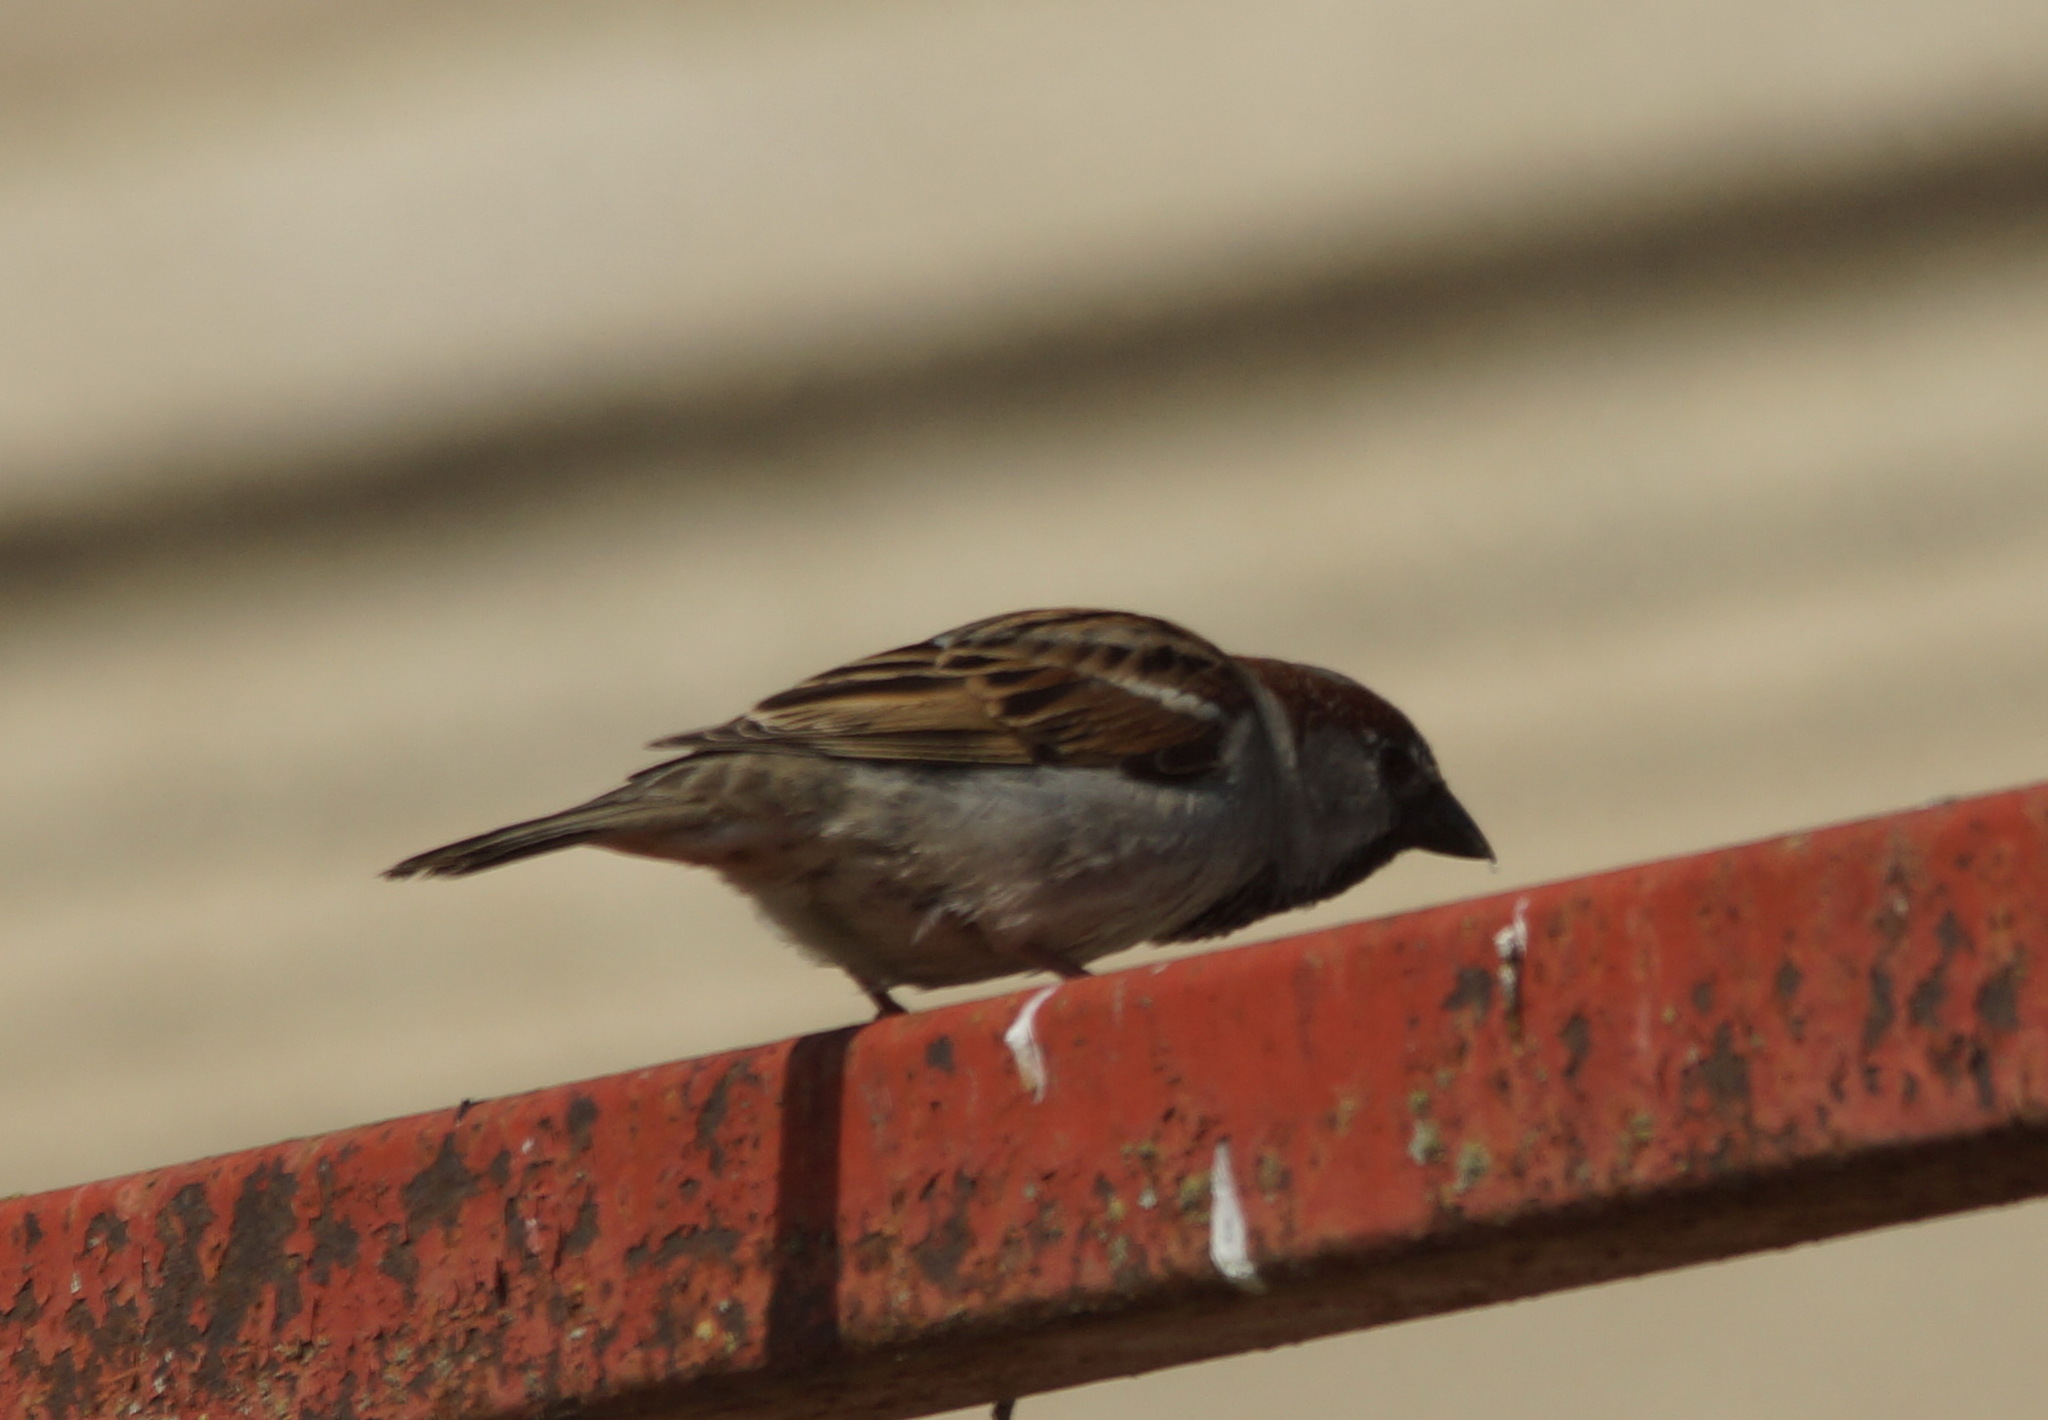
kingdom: Animalia
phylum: Chordata
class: Aves
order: Passeriformes
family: Passeridae
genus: Passer
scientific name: Passer domesticus
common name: House sparrow
